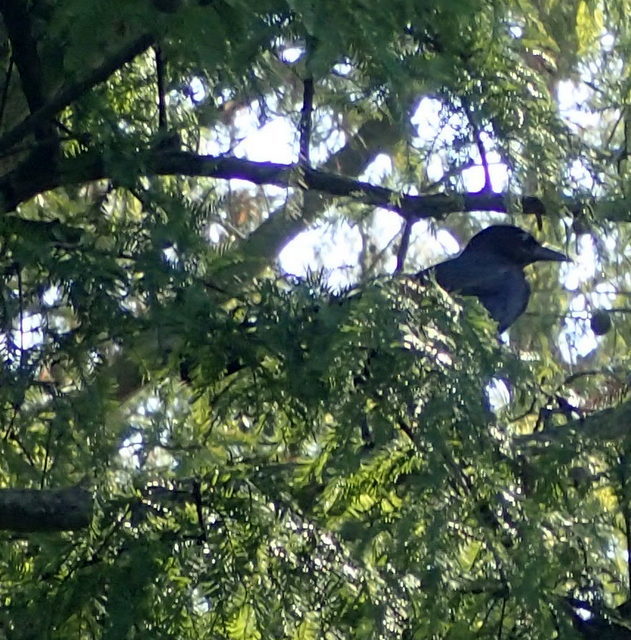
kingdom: Animalia
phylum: Chordata
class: Aves
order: Passeriformes
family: Icteridae
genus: Quiscalus
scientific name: Quiscalus major
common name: Boat-tailed grackle
